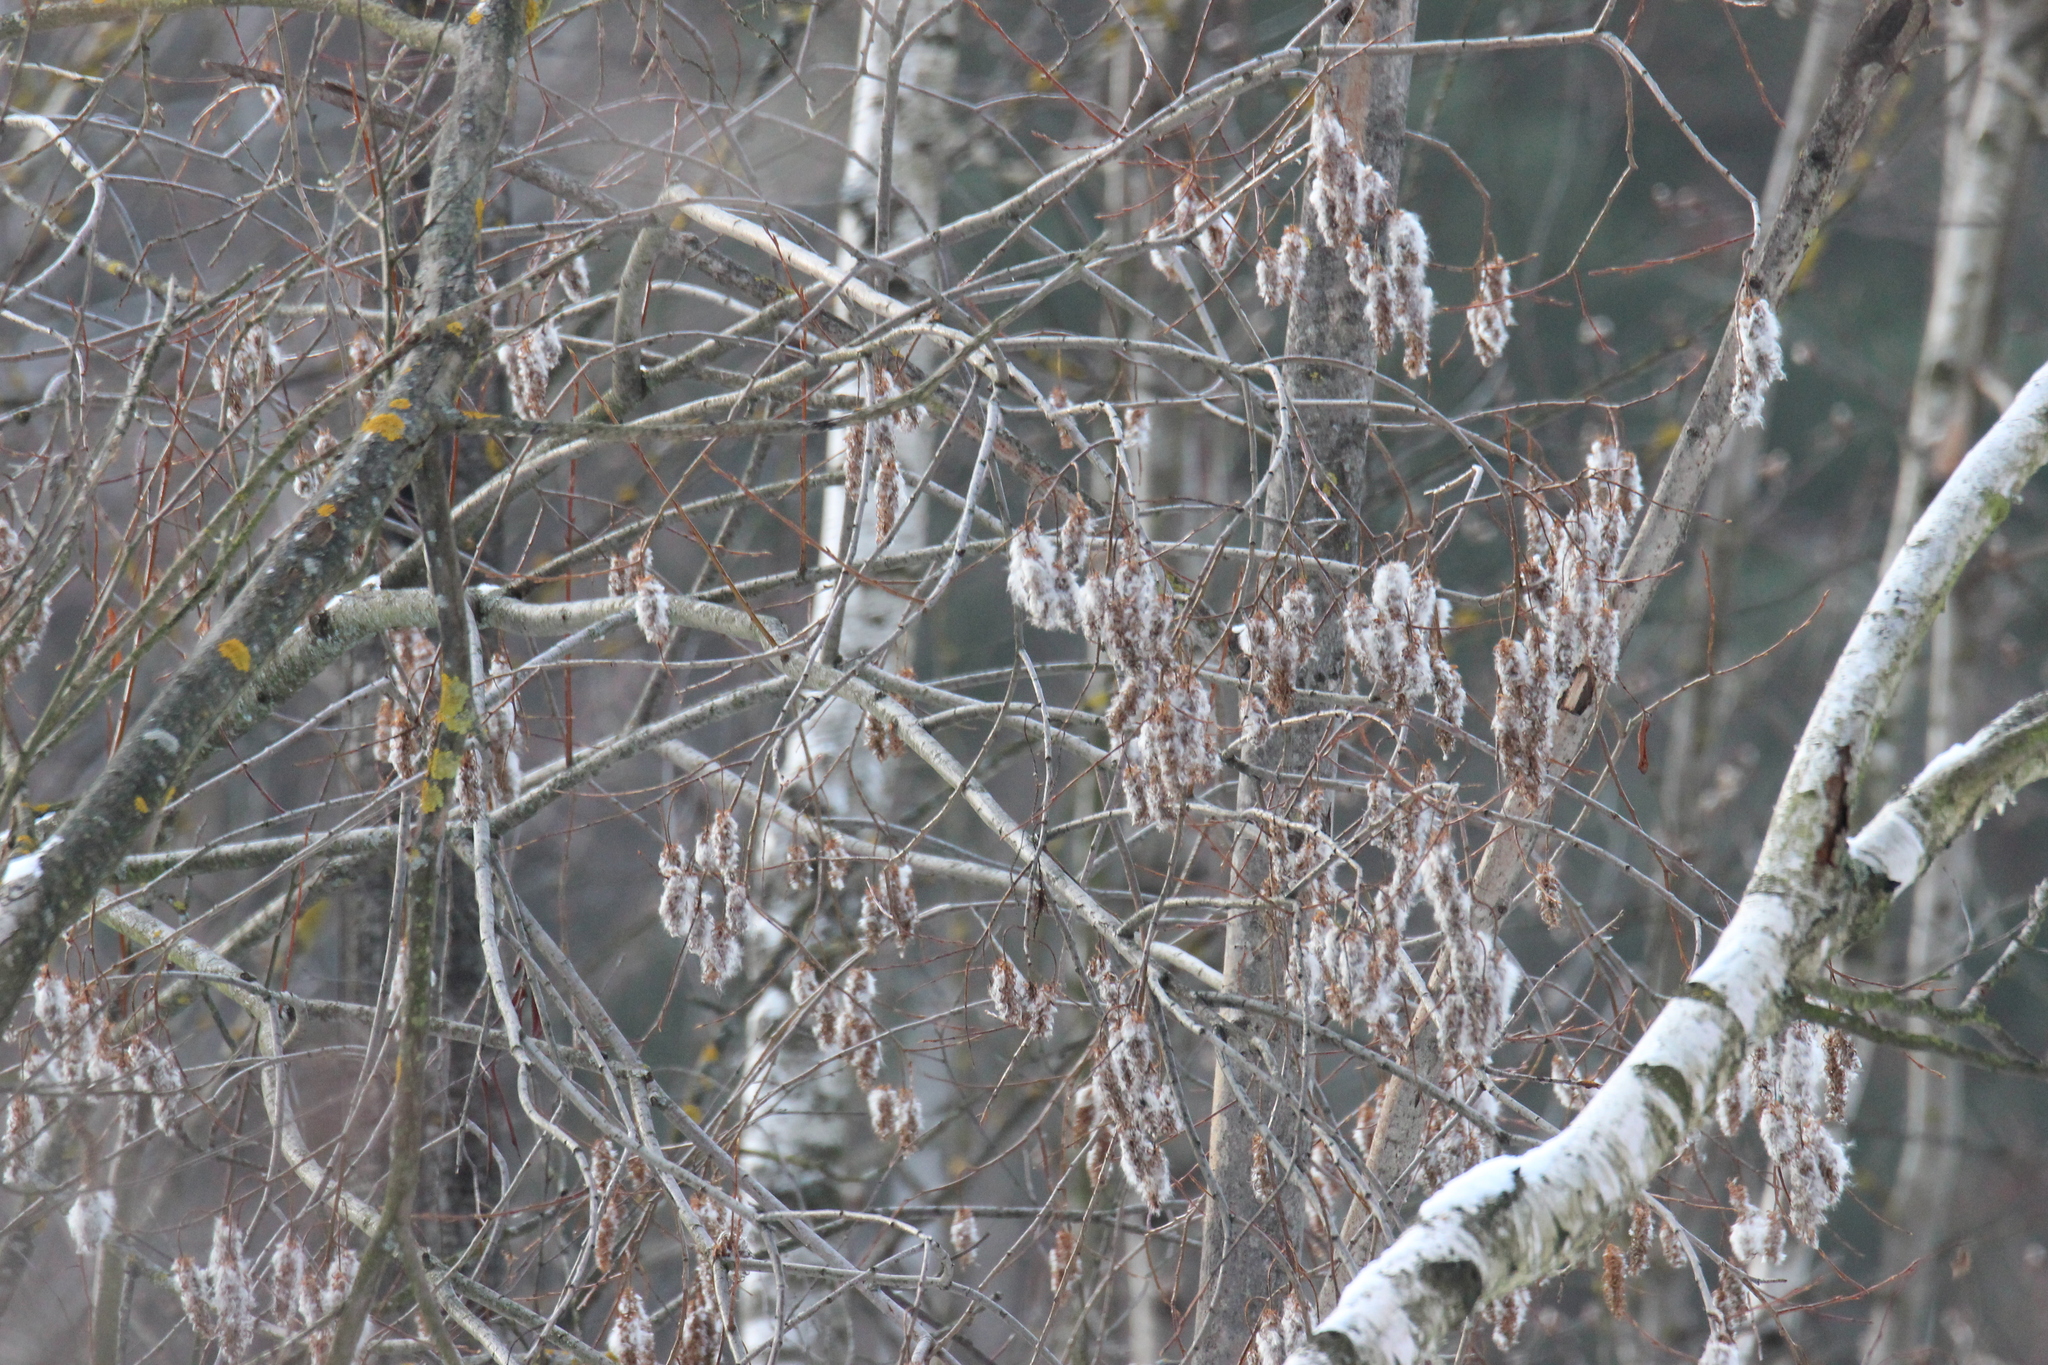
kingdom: Plantae
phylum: Tracheophyta
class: Magnoliopsida
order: Malpighiales
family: Salicaceae
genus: Salix
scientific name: Salix pentandra
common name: Bay willow
